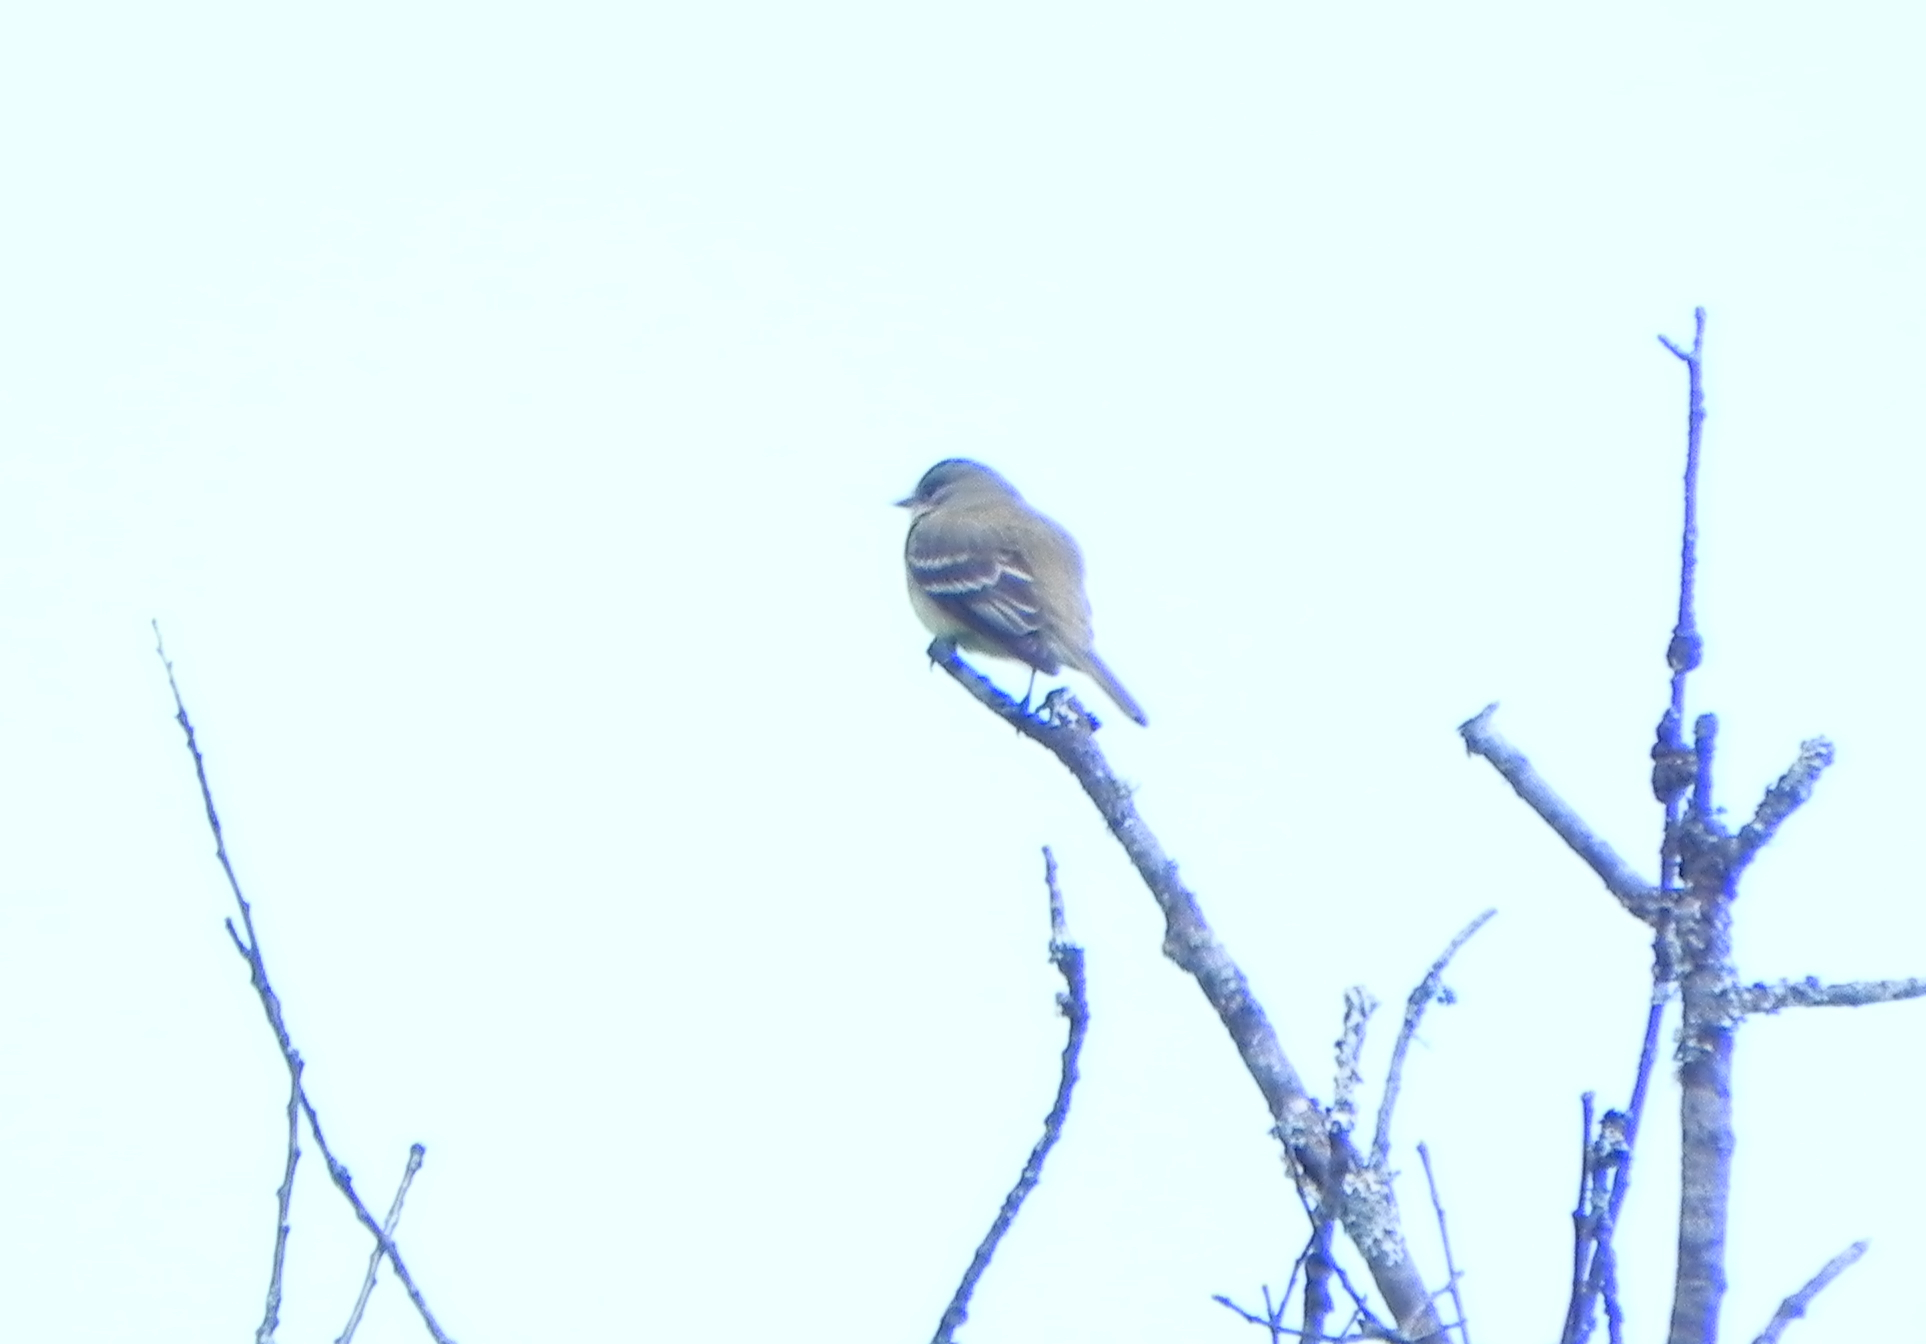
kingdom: Animalia
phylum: Chordata
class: Aves
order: Passeriformes
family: Tyrannidae
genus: Empidonax
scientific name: Empidonax
